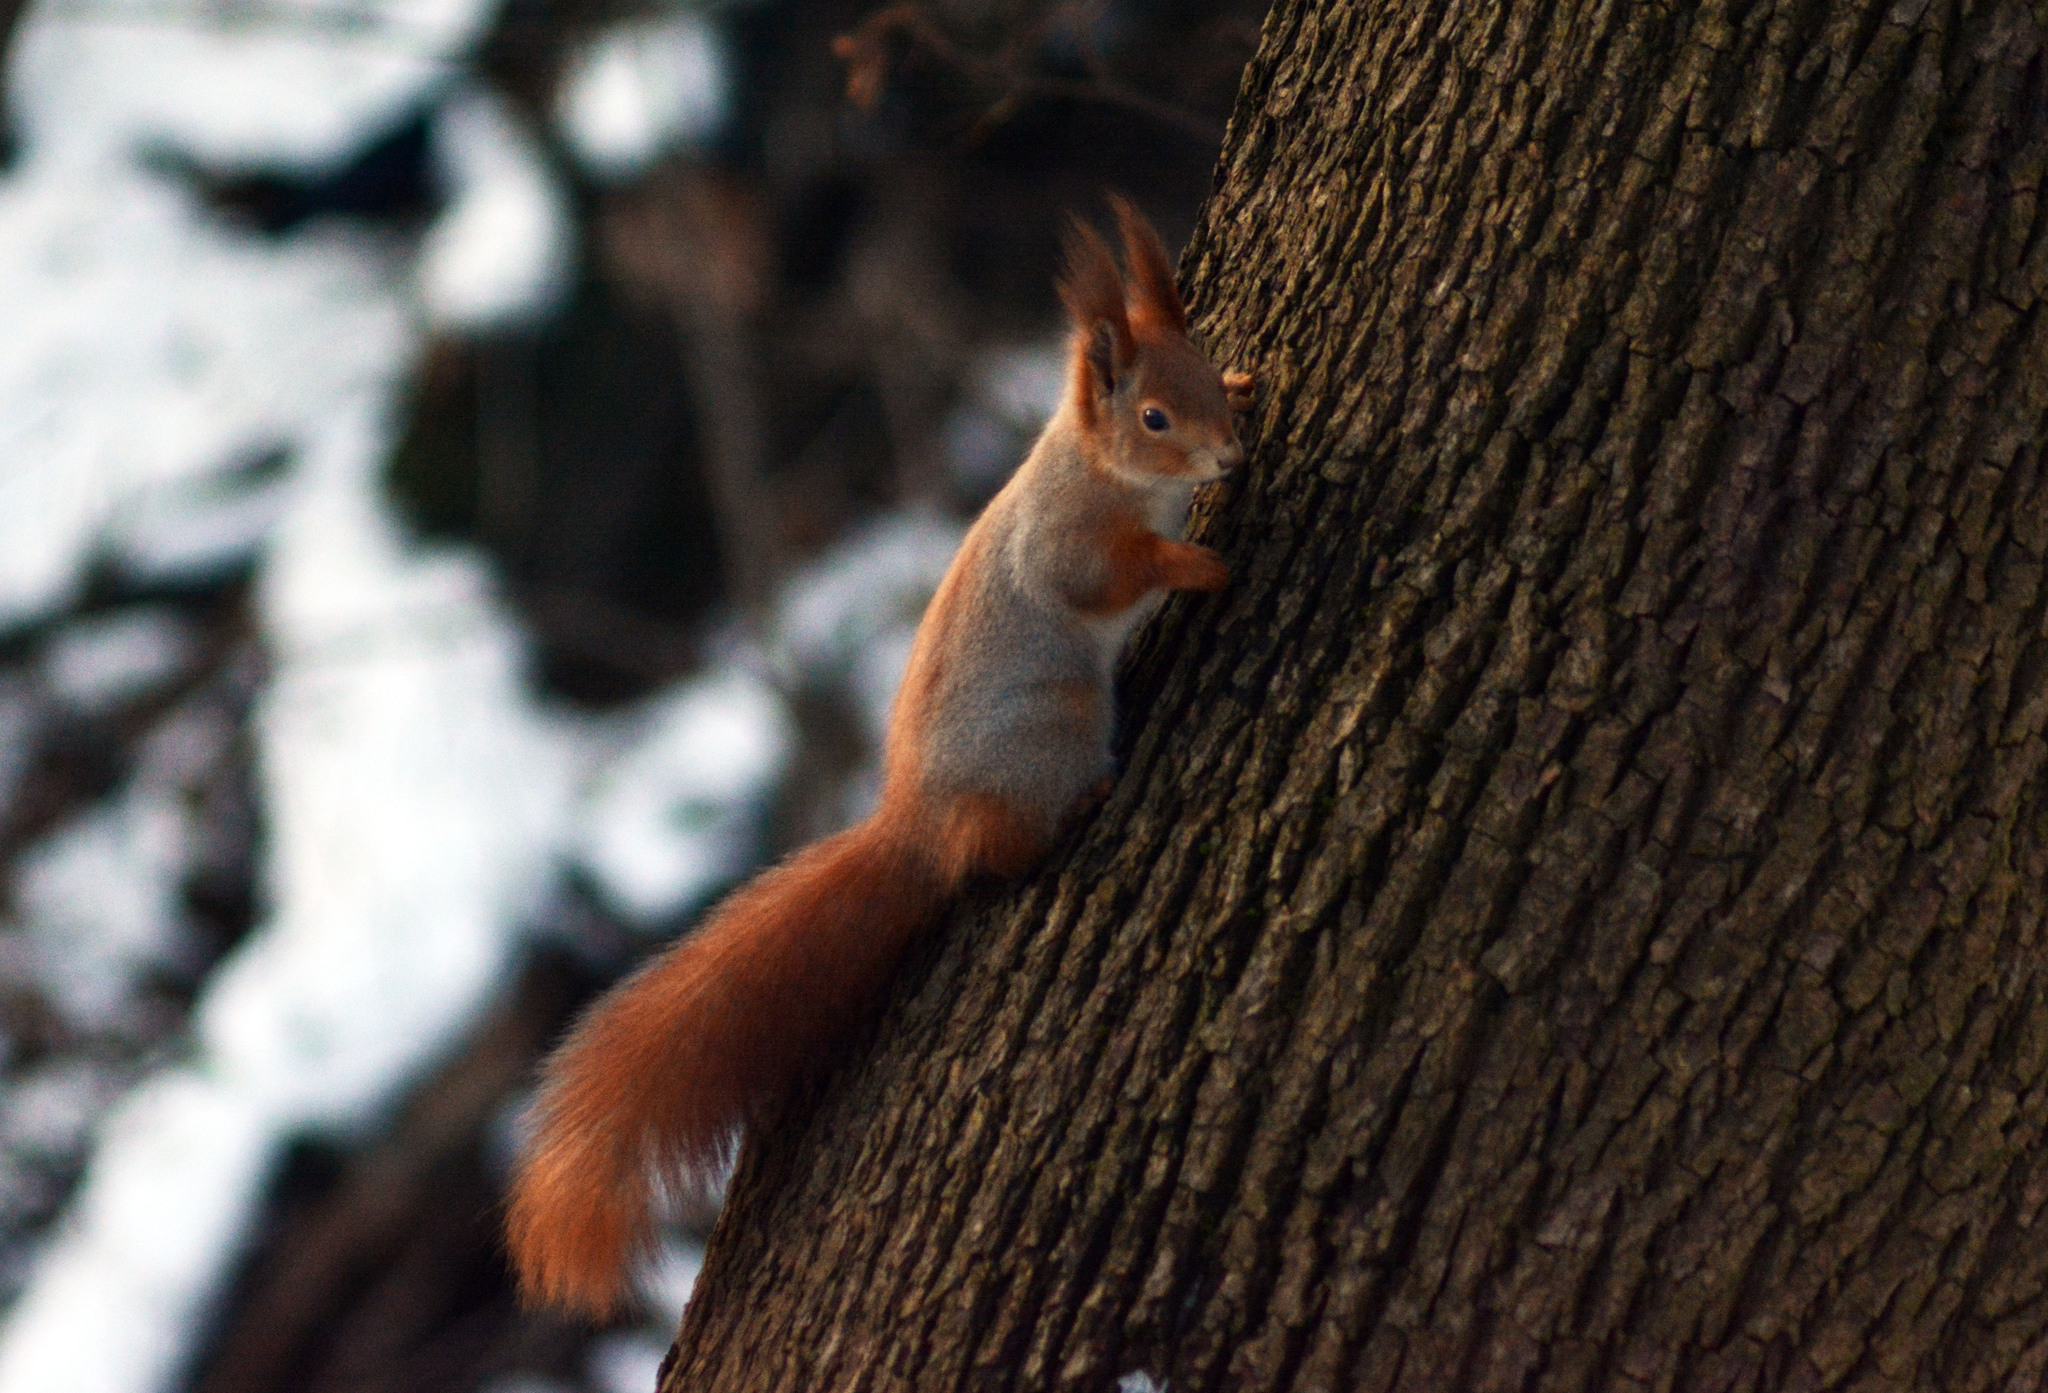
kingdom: Animalia
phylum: Chordata
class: Mammalia
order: Rodentia
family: Sciuridae
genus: Sciurus
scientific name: Sciurus vulgaris
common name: Eurasian red squirrel
